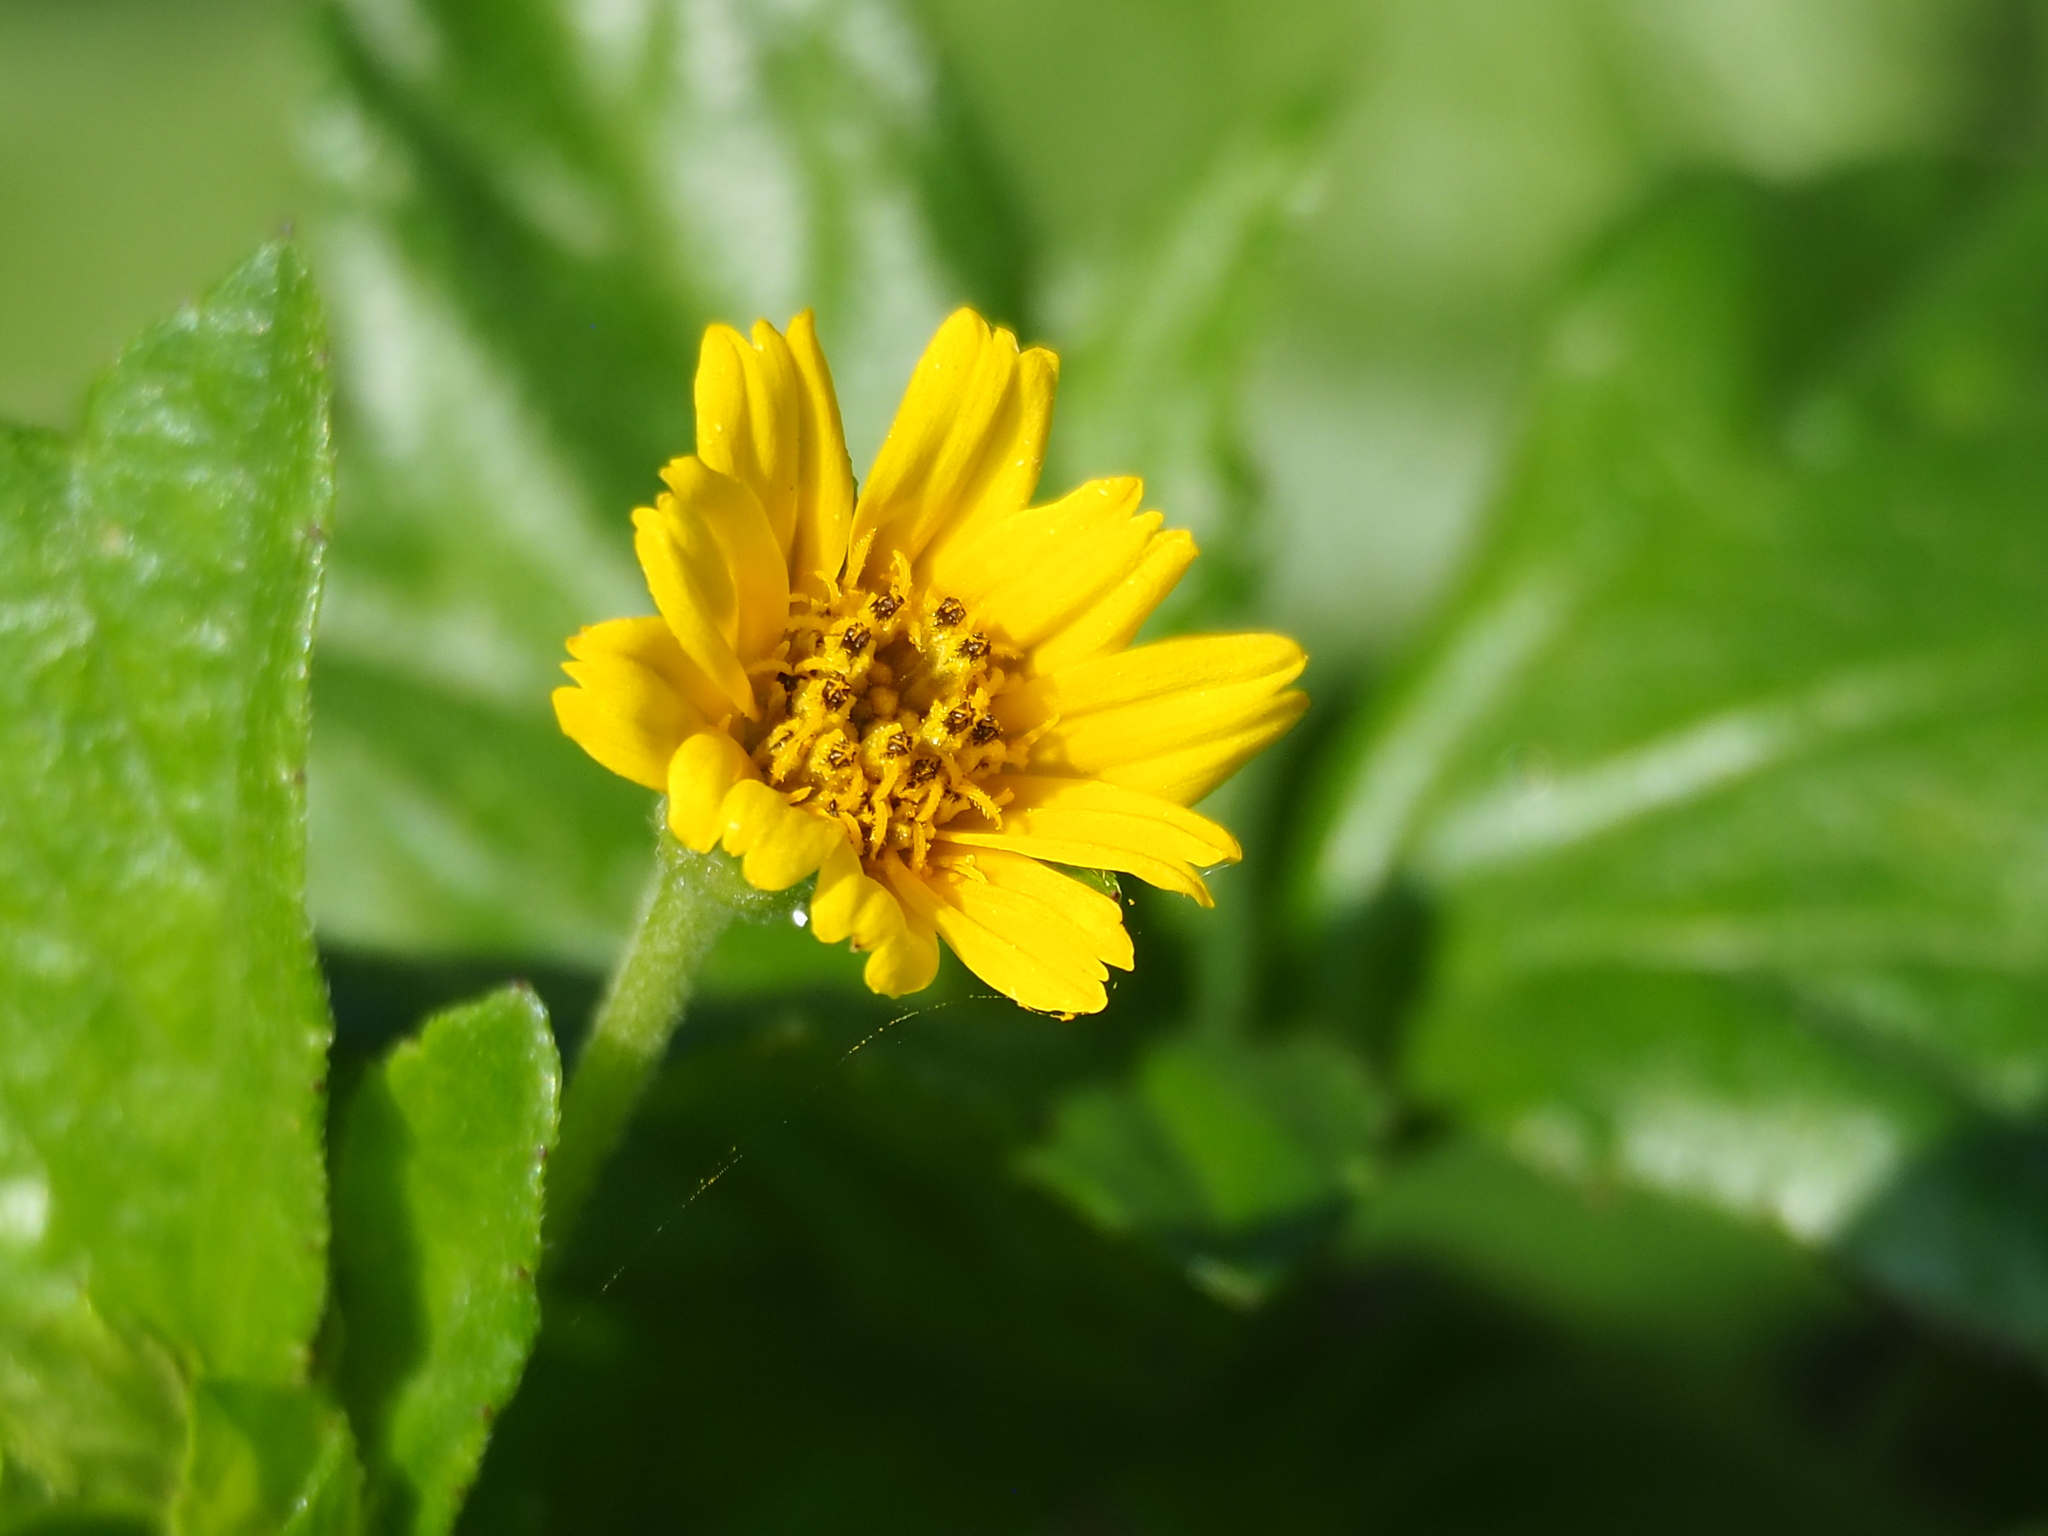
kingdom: Plantae
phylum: Tracheophyta
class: Magnoliopsida
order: Asterales
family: Asteraceae
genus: Sphagneticola
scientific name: Sphagneticola trilobata
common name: Bay biscayne creeping-oxeye
